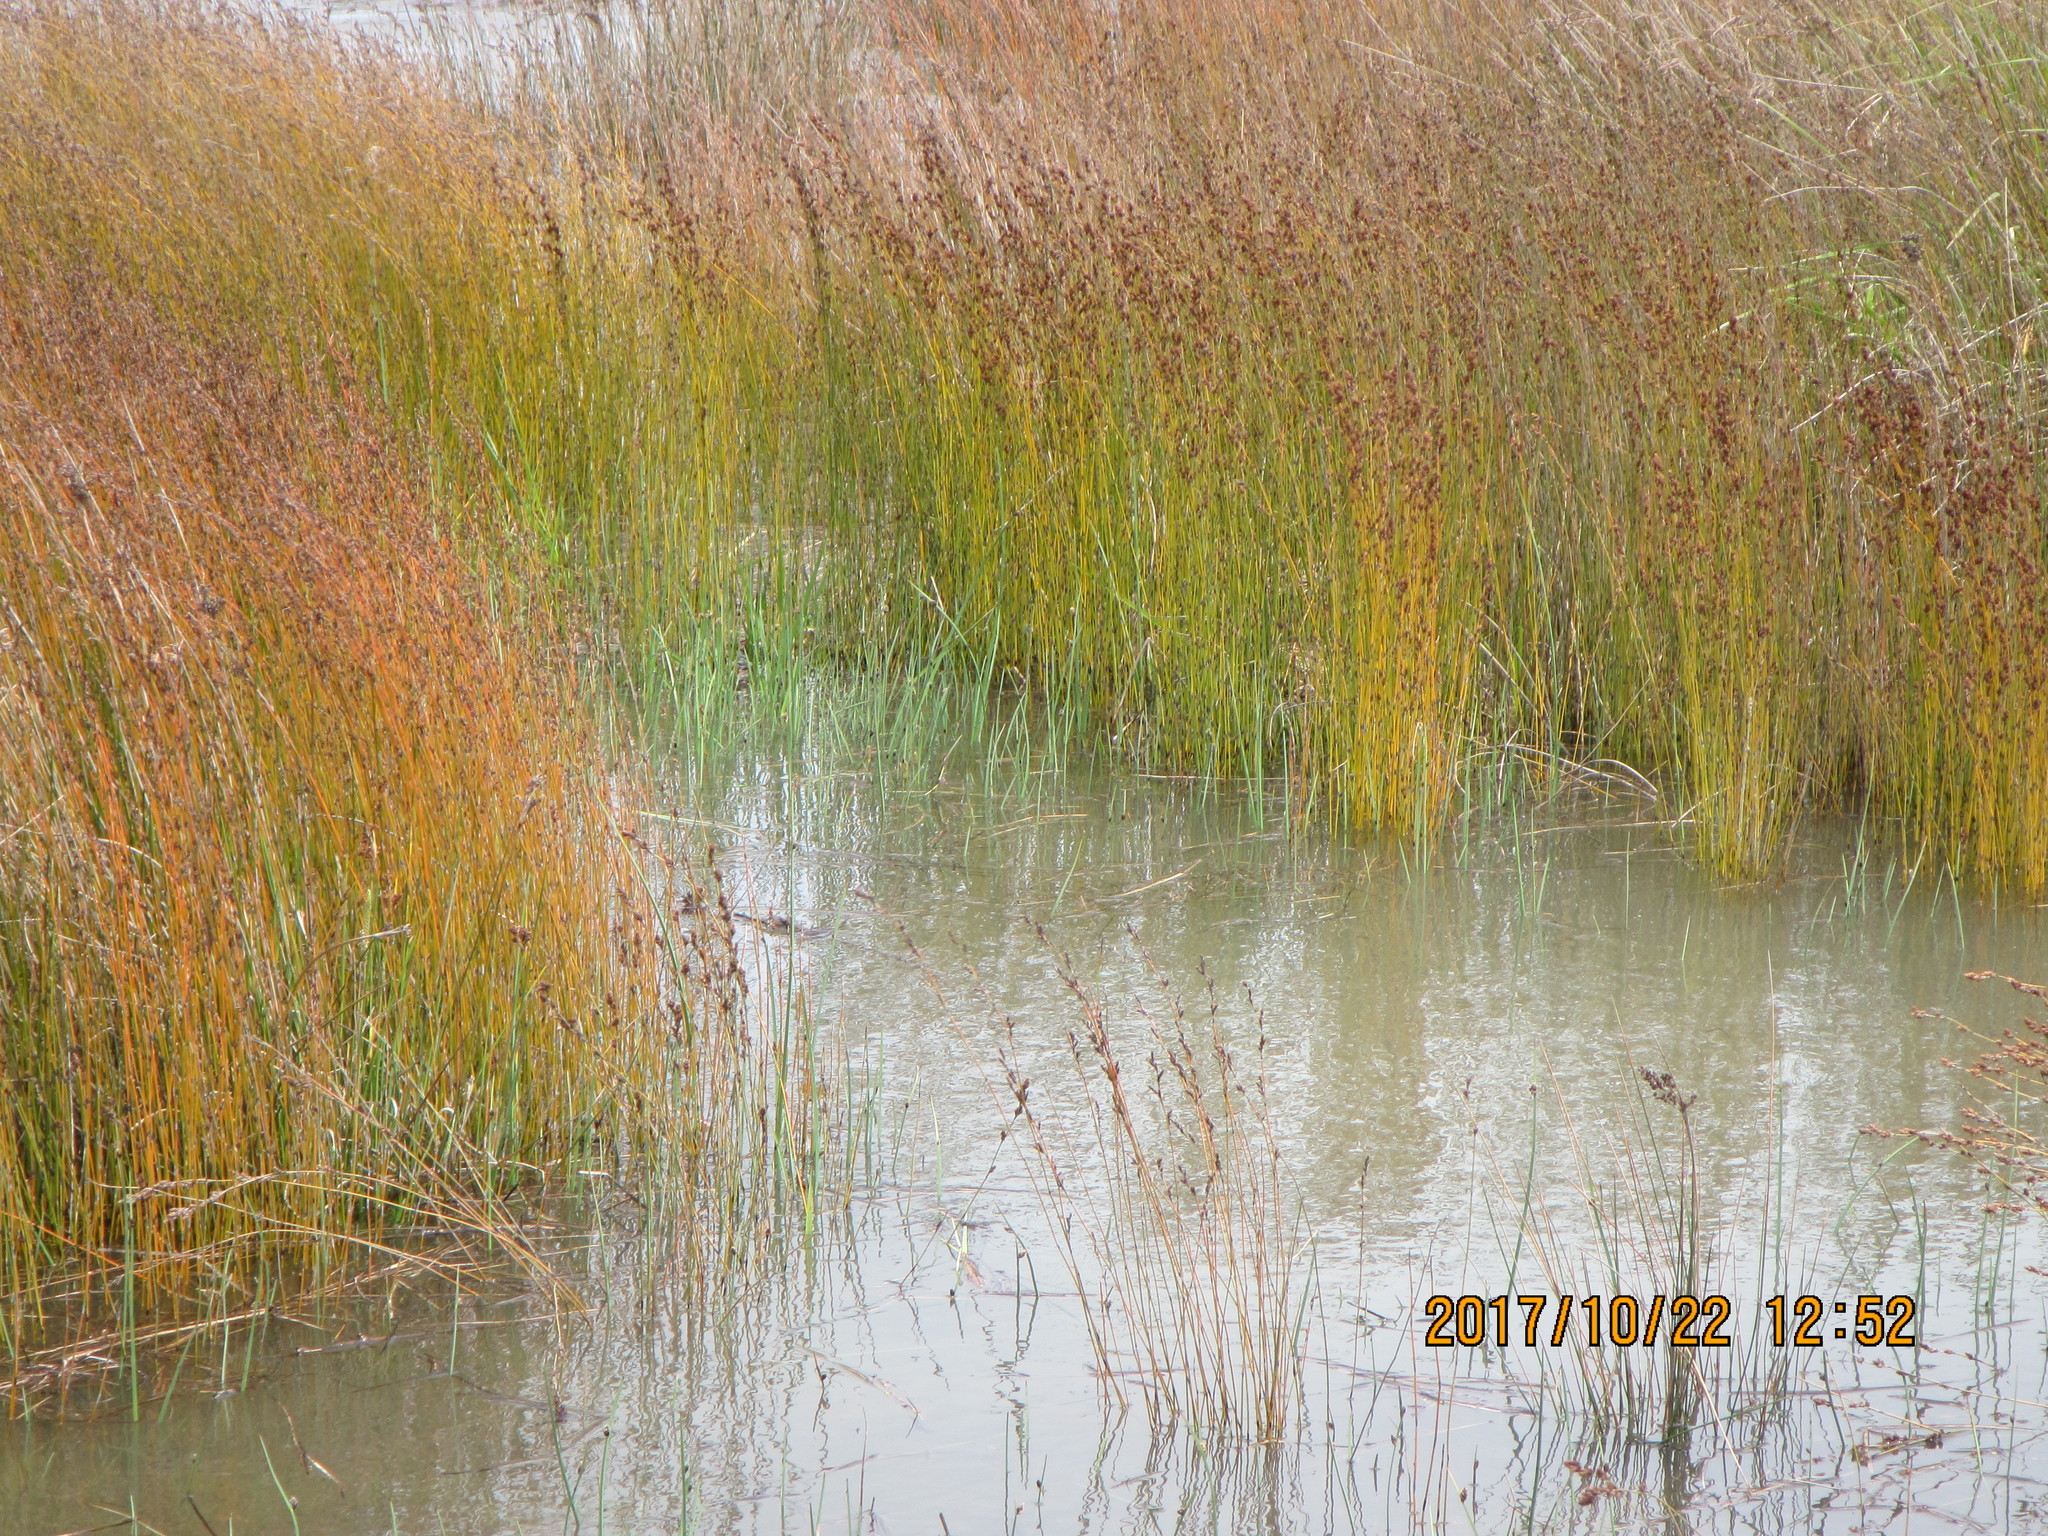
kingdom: Plantae
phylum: Tracheophyta
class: Liliopsida
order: Poales
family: Restionaceae
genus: Apodasmia
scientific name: Apodasmia similis
